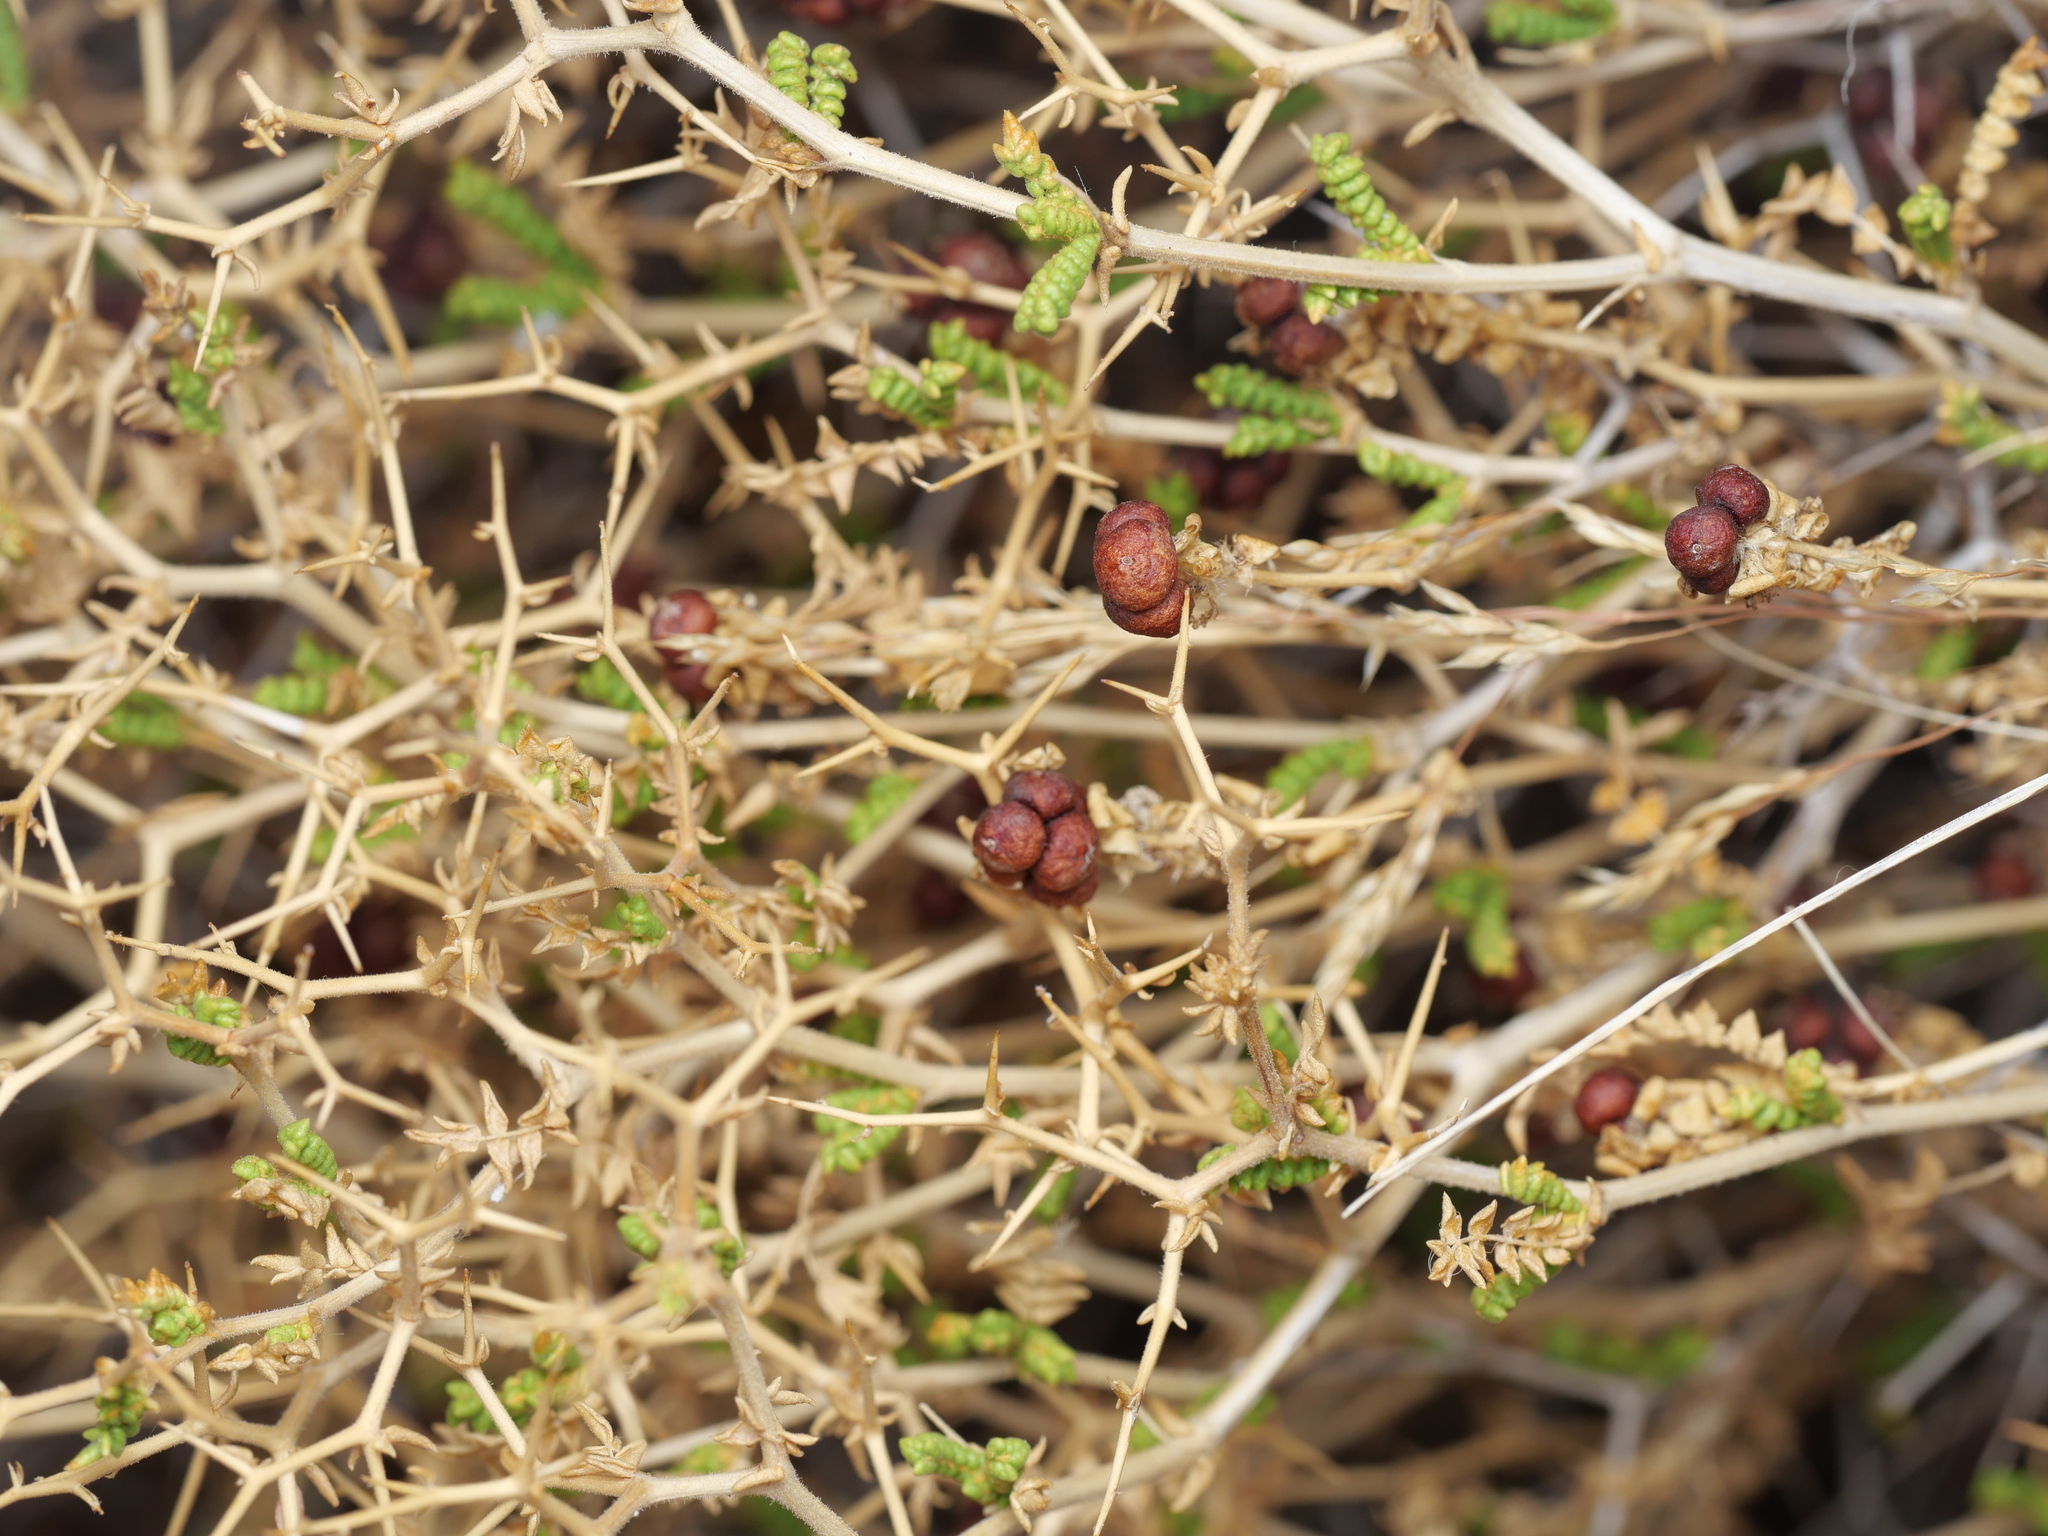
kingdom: Plantae
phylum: Tracheophyta
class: Magnoliopsida
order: Rosales
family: Rosaceae
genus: Sarcopoterium
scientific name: Sarcopoterium spinosum
